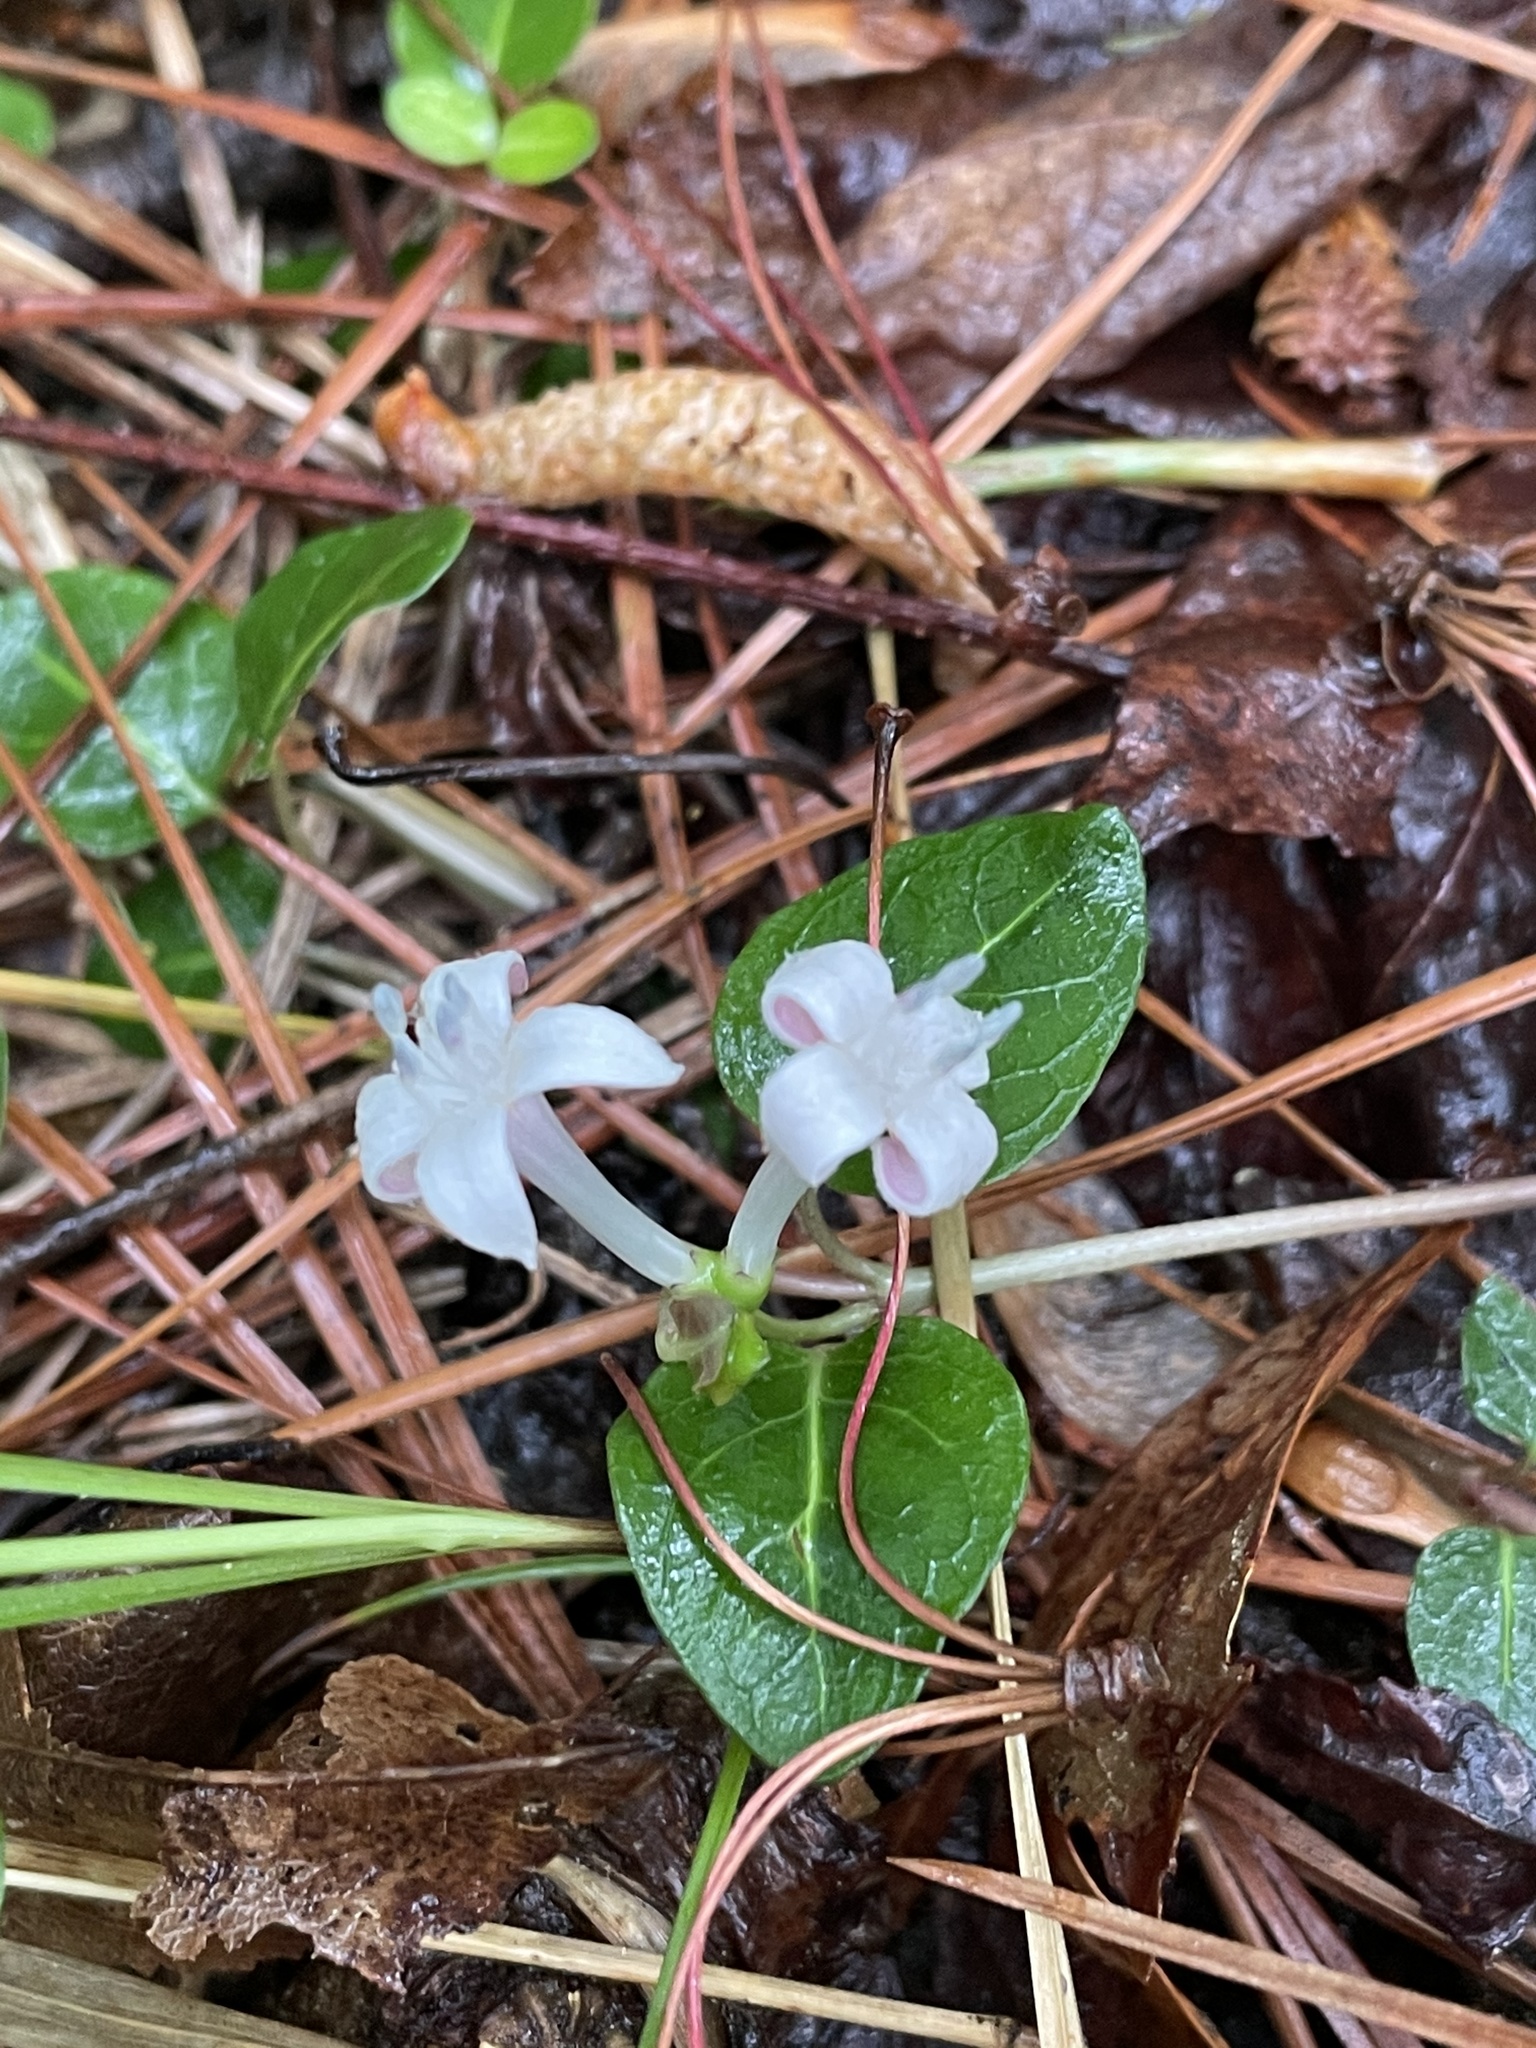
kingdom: Plantae
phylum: Tracheophyta
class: Magnoliopsida
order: Gentianales
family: Rubiaceae
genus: Mitchella
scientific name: Mitchella repens
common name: Partridge-berry
